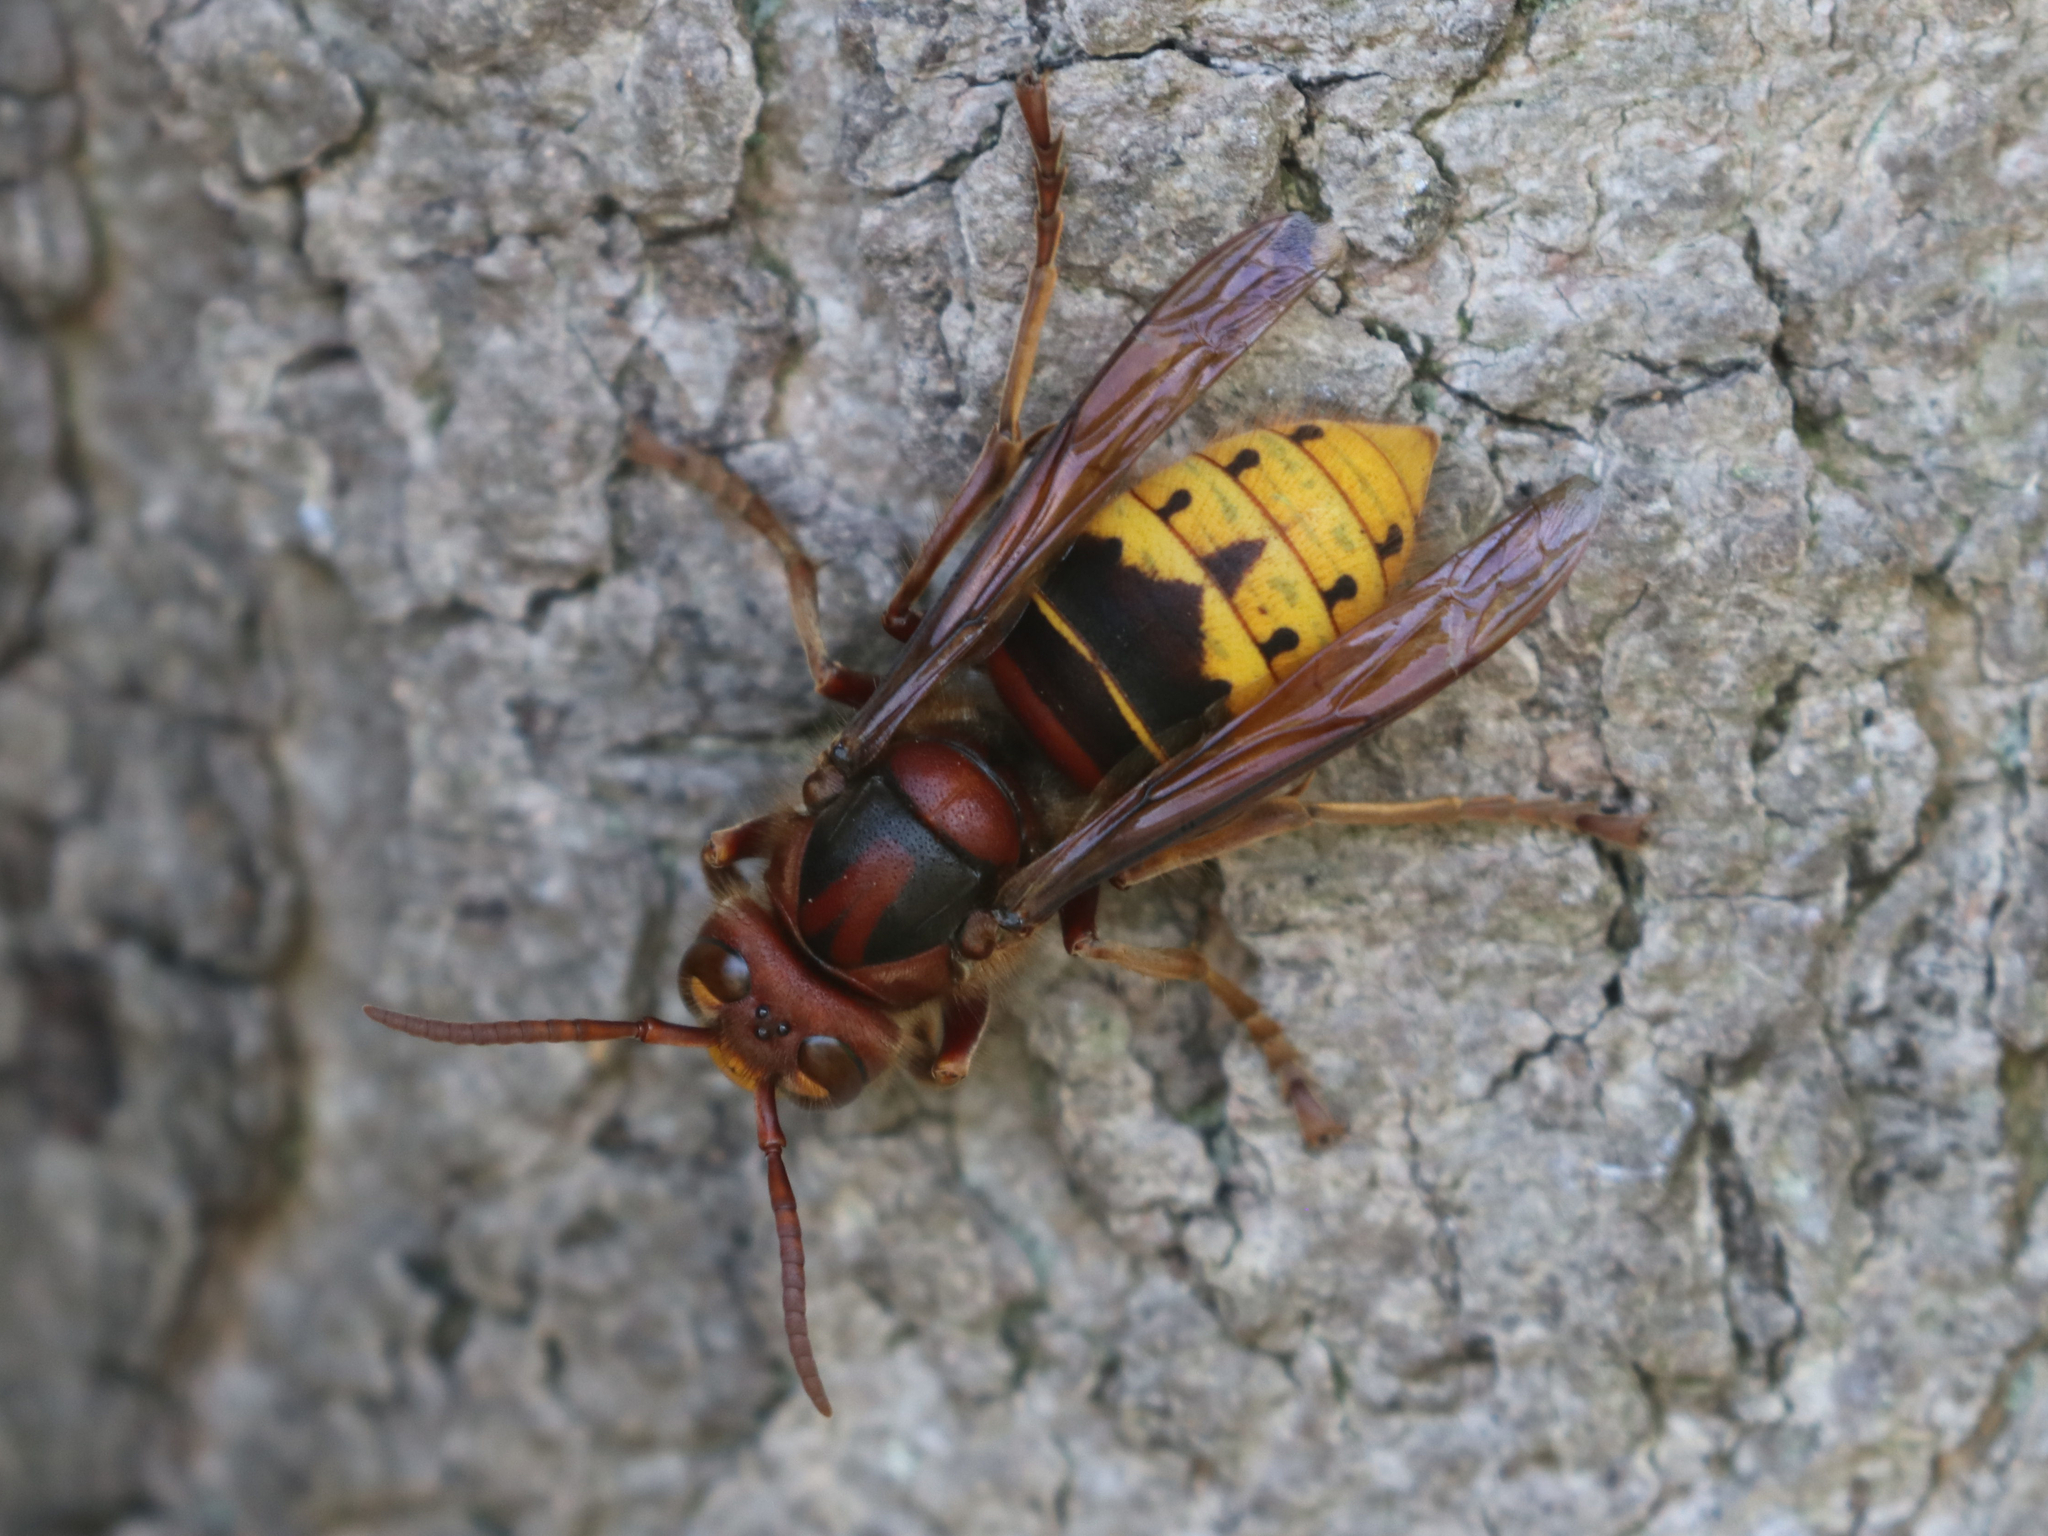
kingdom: Animalia
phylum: Arthropoda
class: Insecta
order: Hymenoptera
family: Vespidae
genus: Vespa
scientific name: Vespa crabro
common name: Hornet
